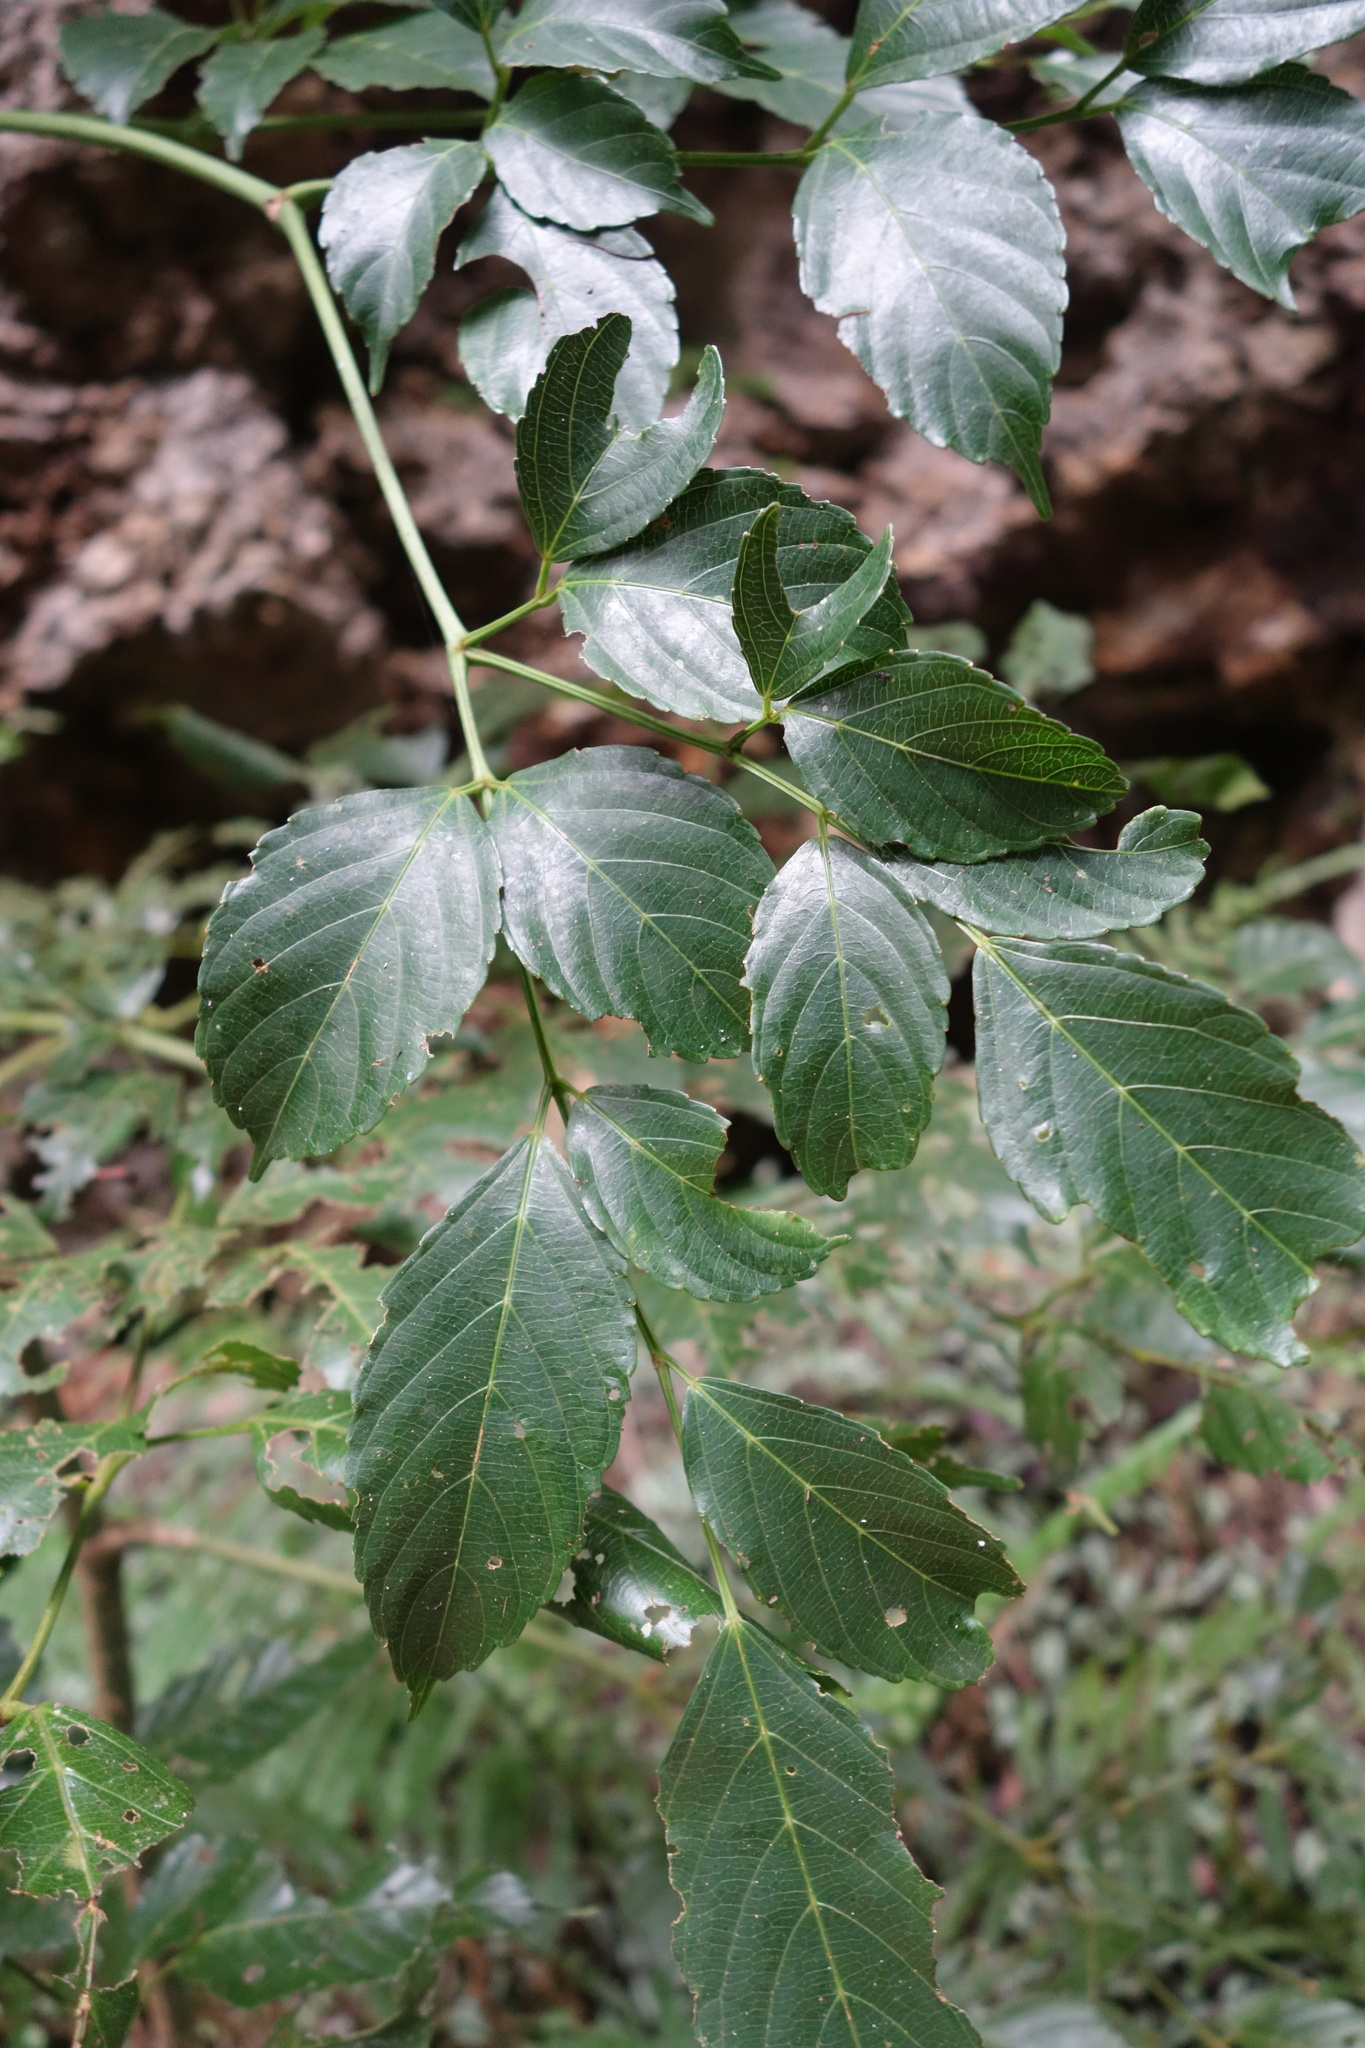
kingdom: Plantae
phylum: Tracheophyta
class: Magnoliopsida
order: Vitales
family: Vitaceae
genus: Leea
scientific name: Leea guineensis
